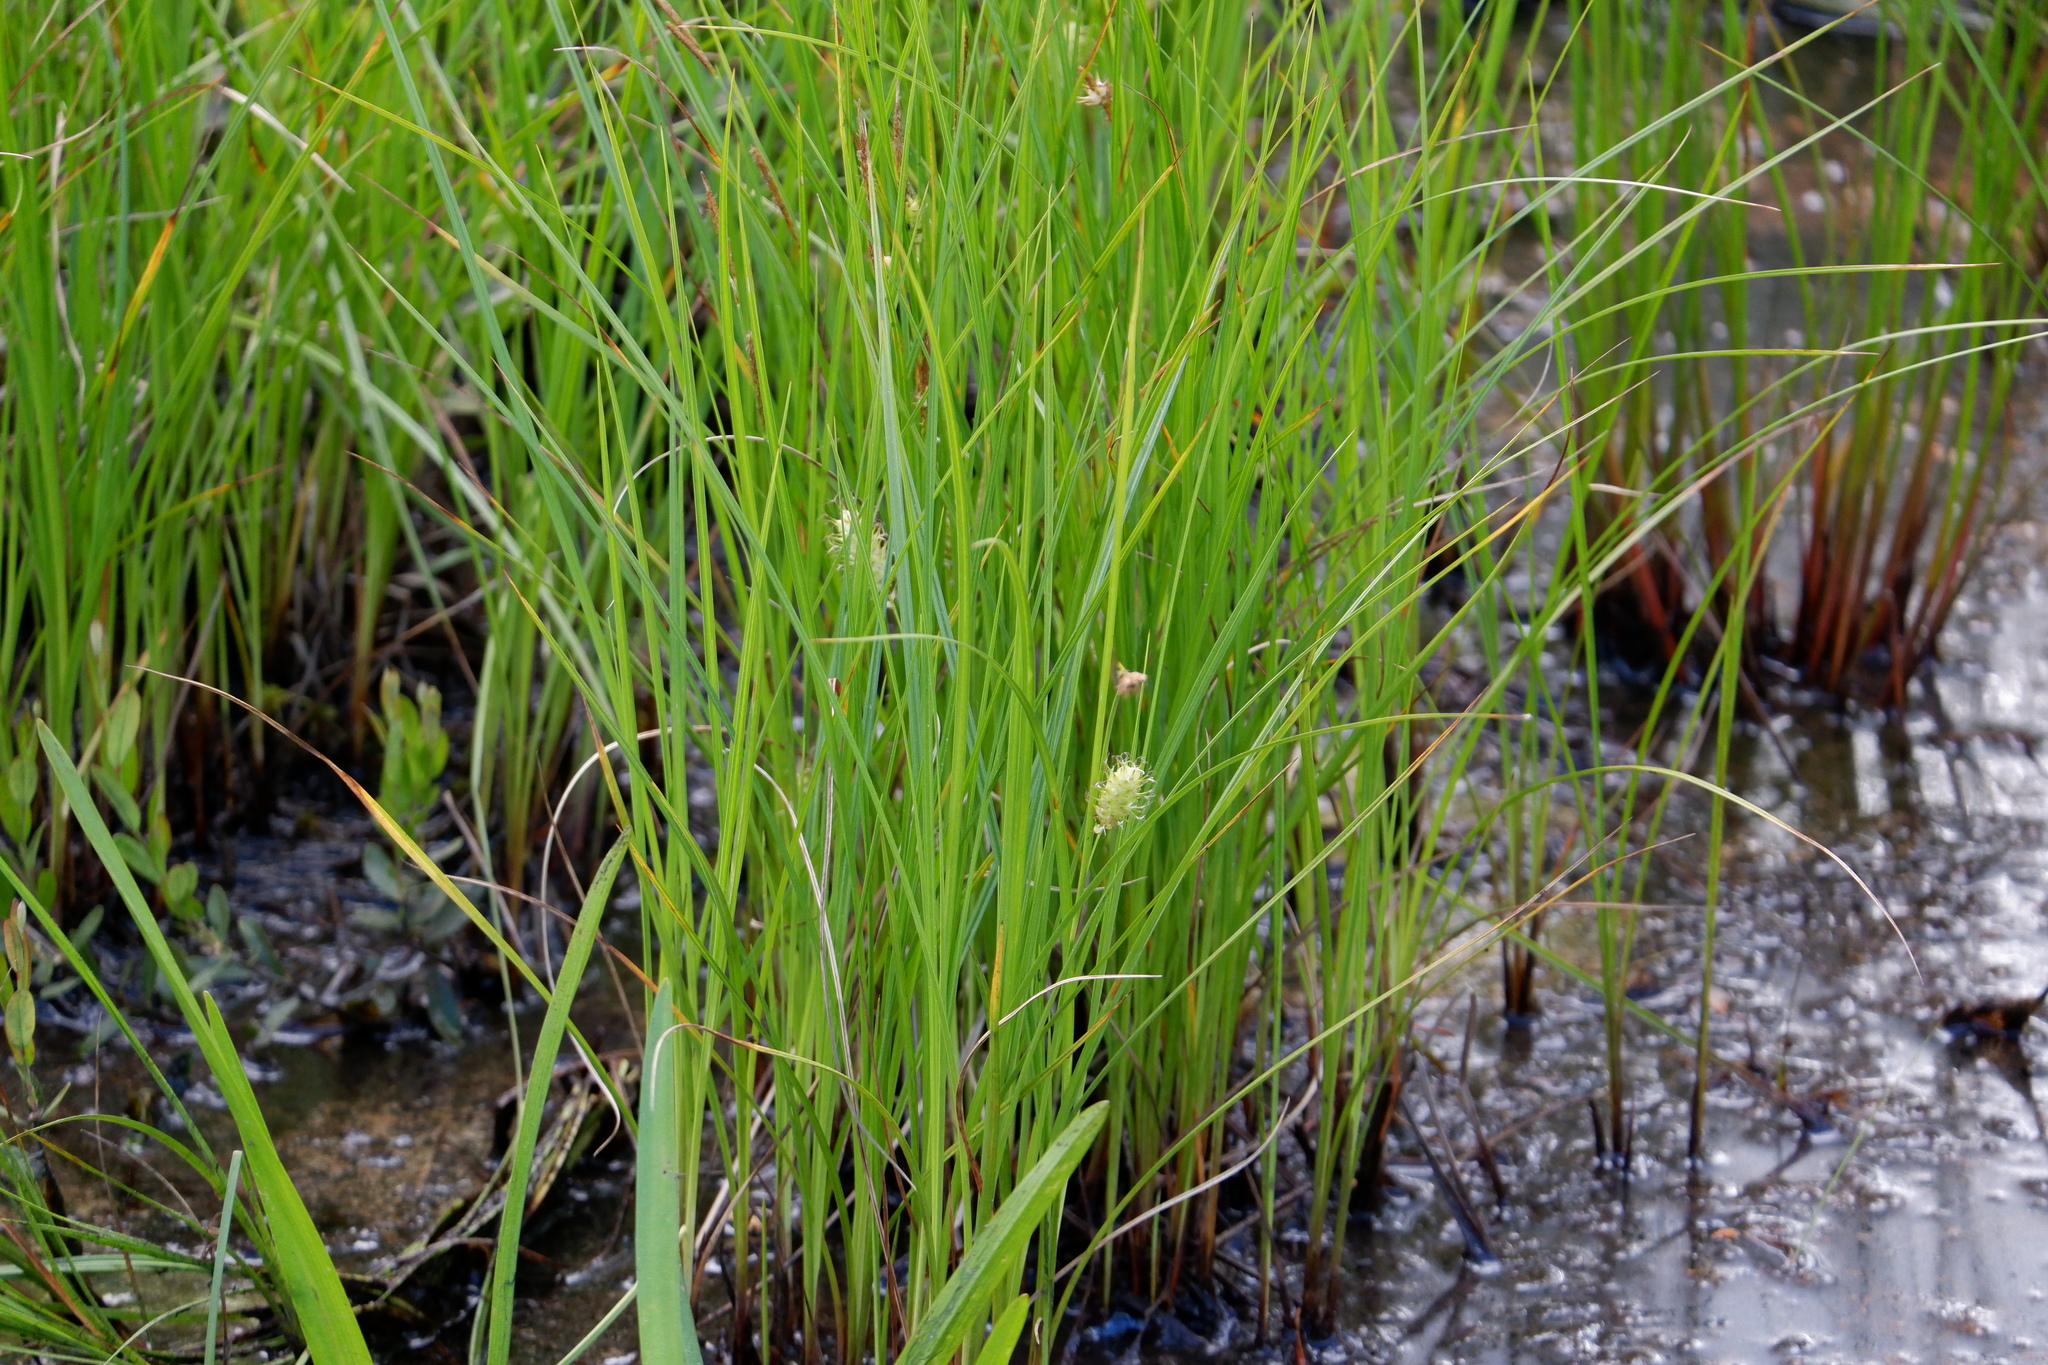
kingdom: Plantae
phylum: Tracheophyta
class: Liliopsida
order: Poales
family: Cyperaceae
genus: Carex
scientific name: Carex bullata
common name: Button sedge
